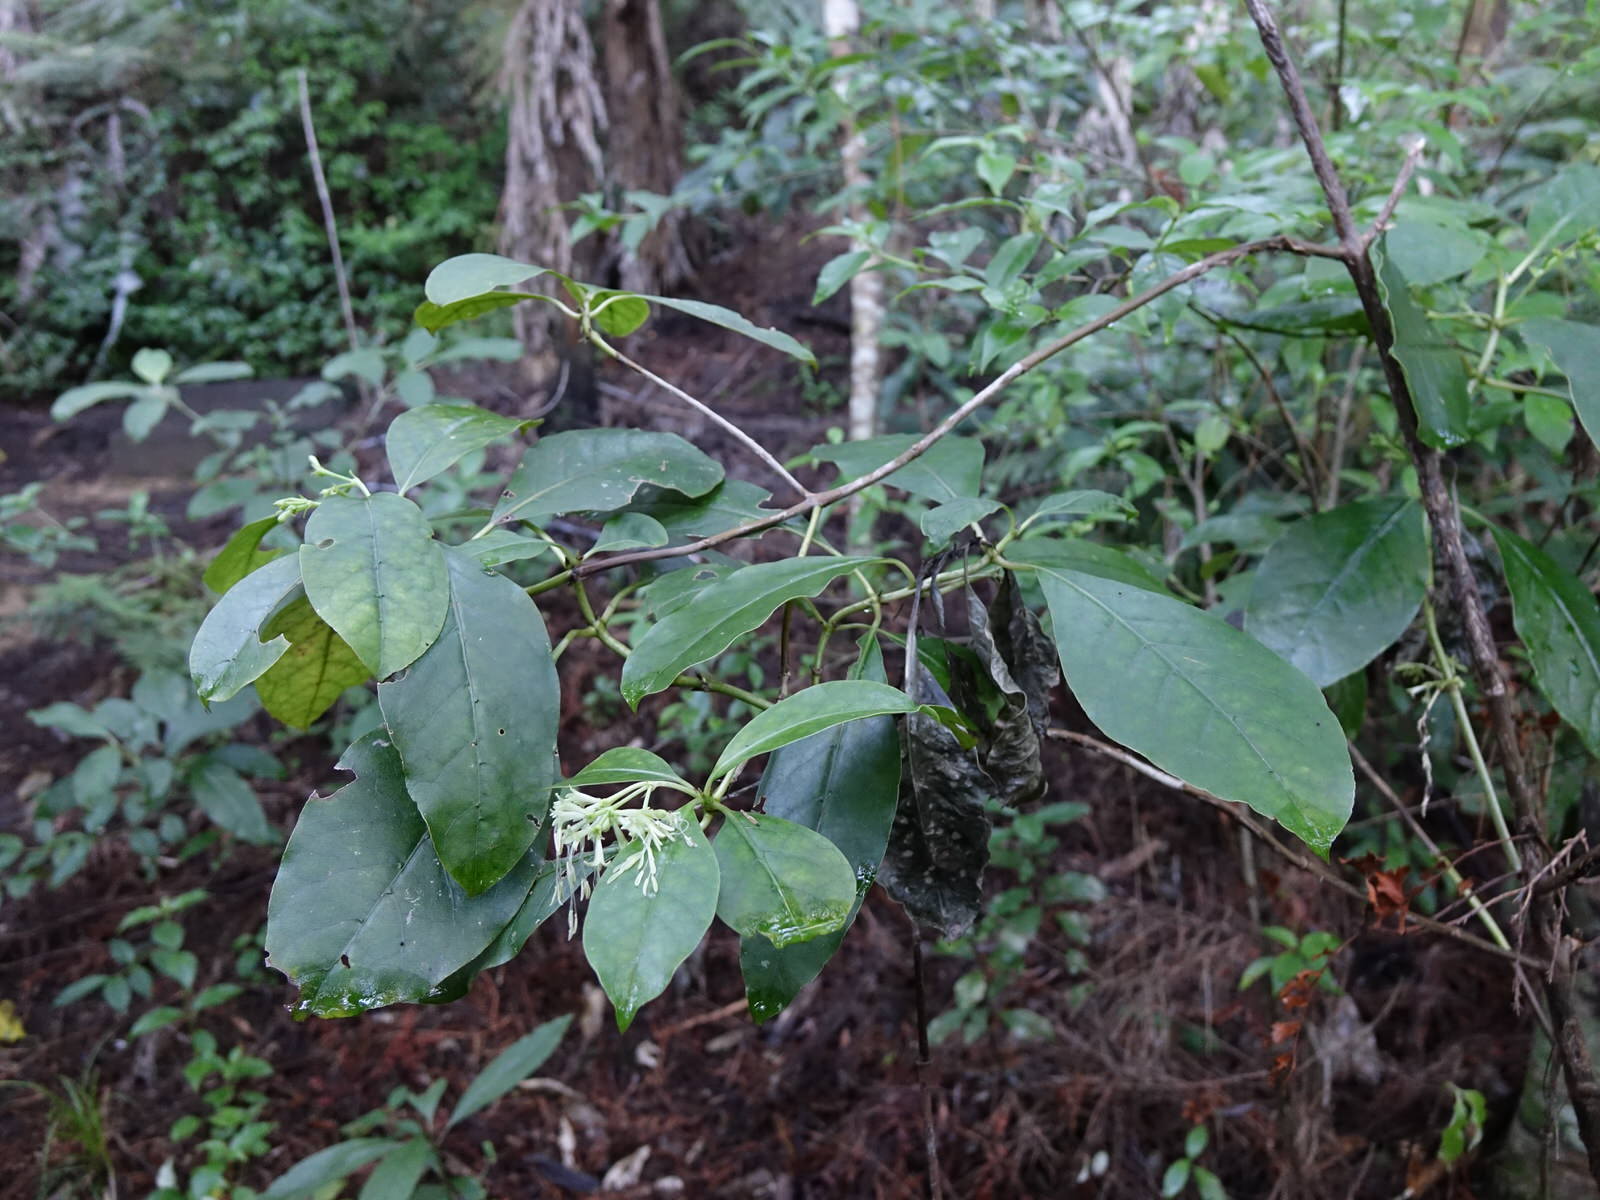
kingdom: Plantae
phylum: Tracheophyta
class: Magnoliopsida
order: Gentianales
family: Rubiaceae
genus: Coprosma
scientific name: Coprosma autumnalis
